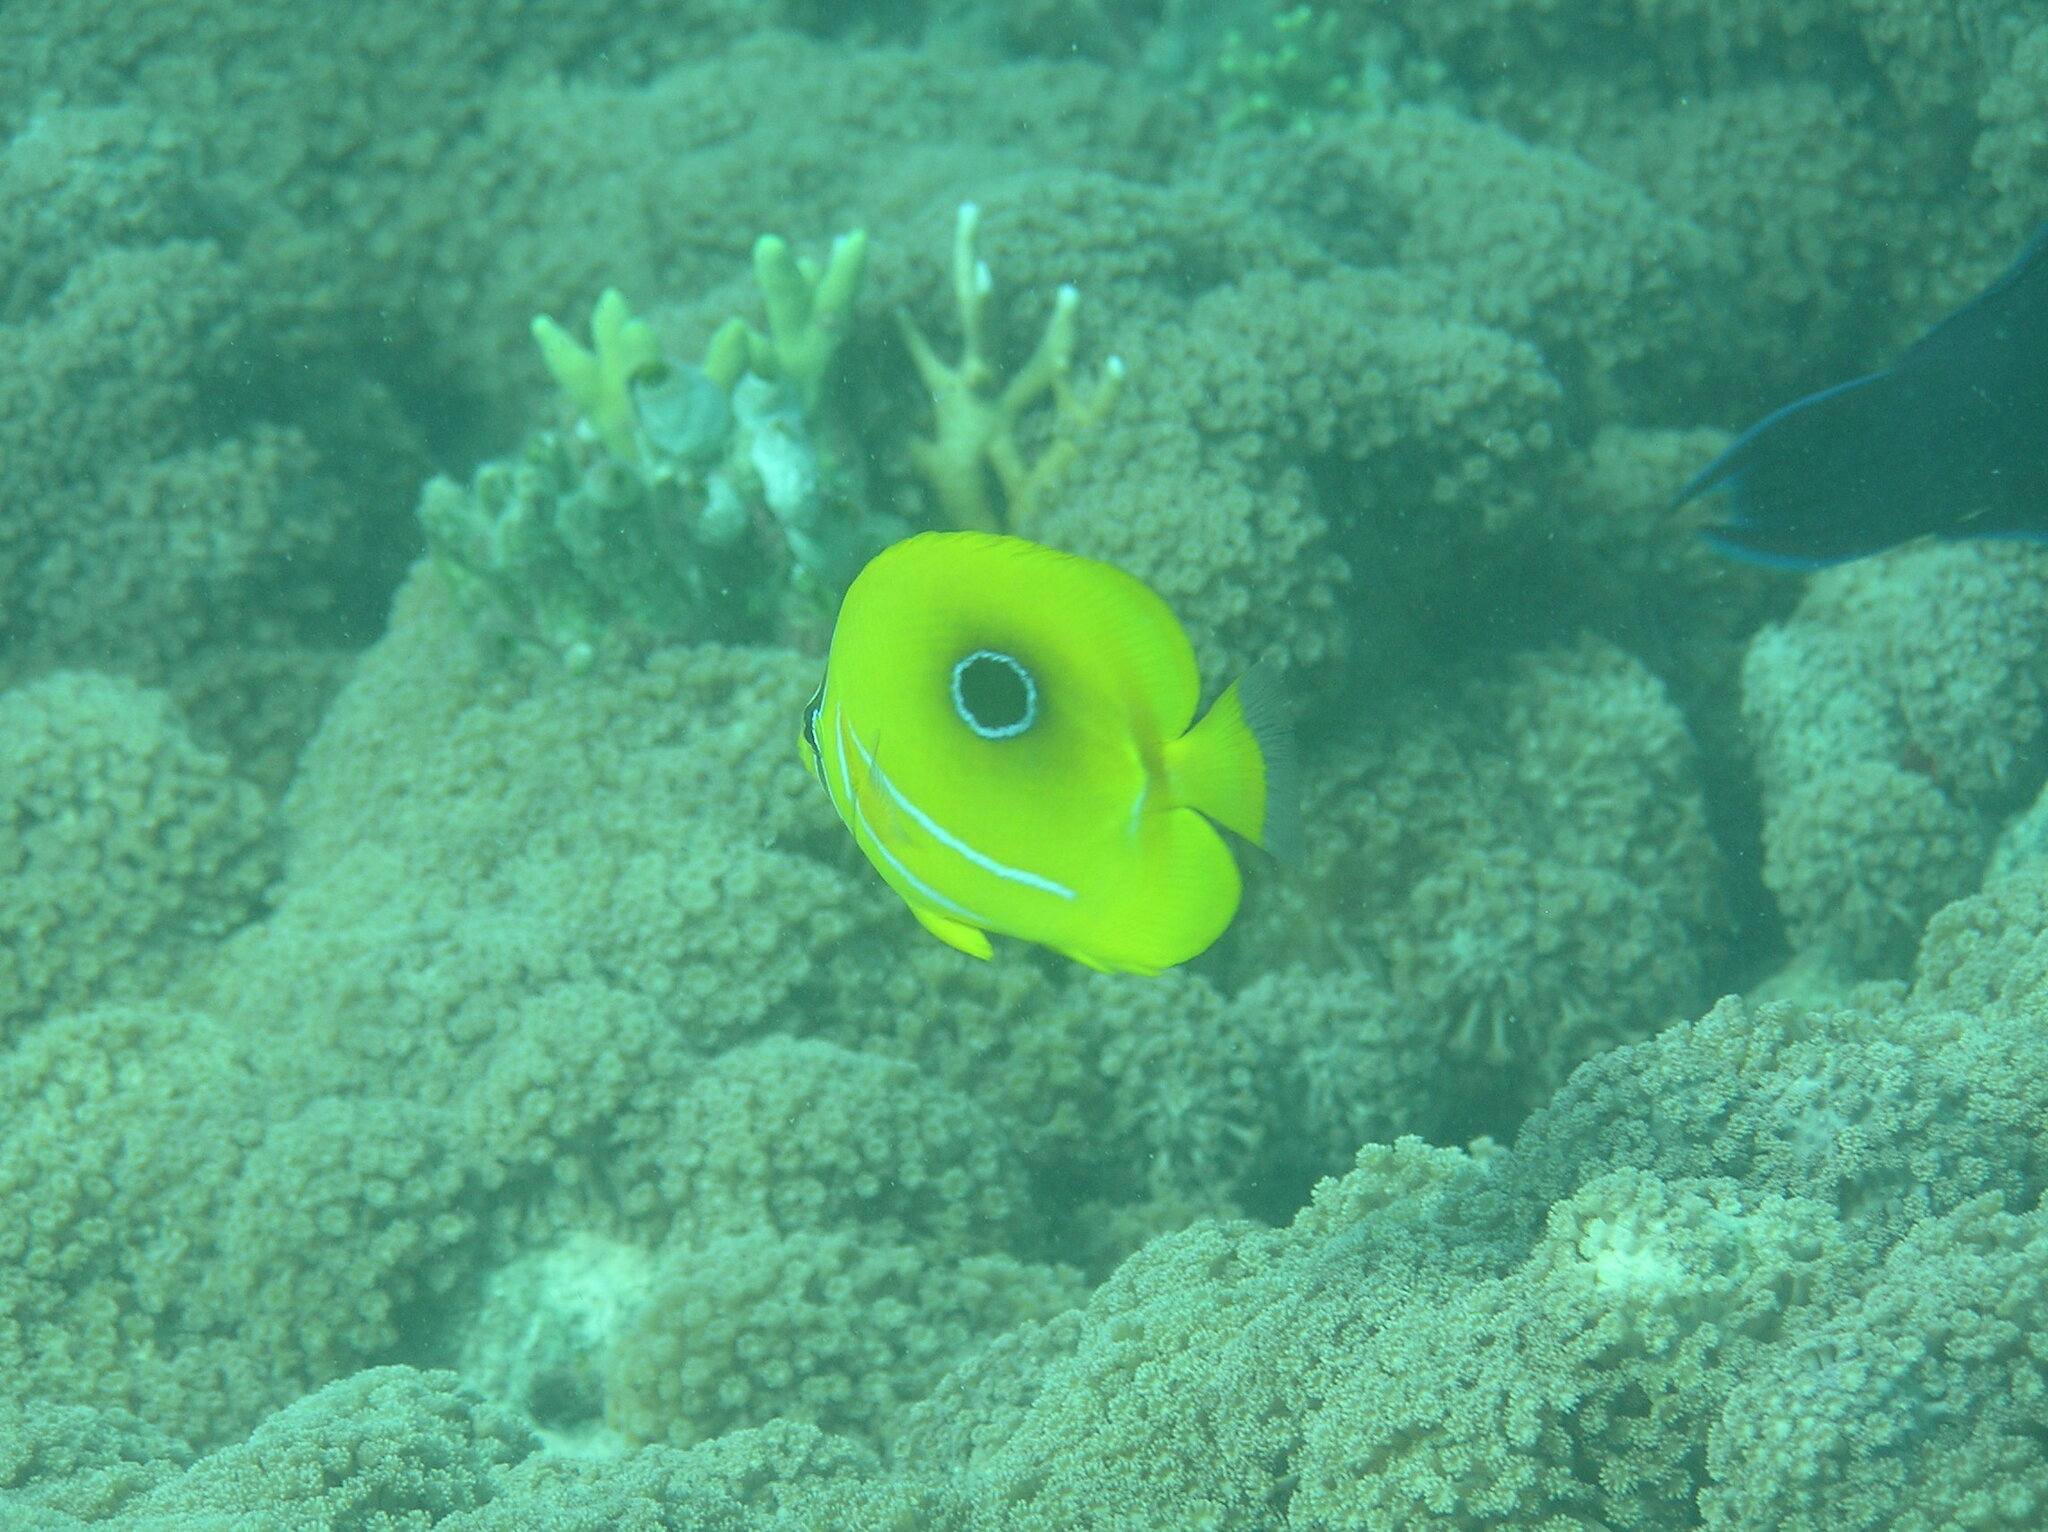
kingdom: Animalia
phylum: Chordata
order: Perciformes
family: Chaetodontidae
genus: Chaetodon
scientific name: Chaetodon bennetti
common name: Bennett's butterflyfish
